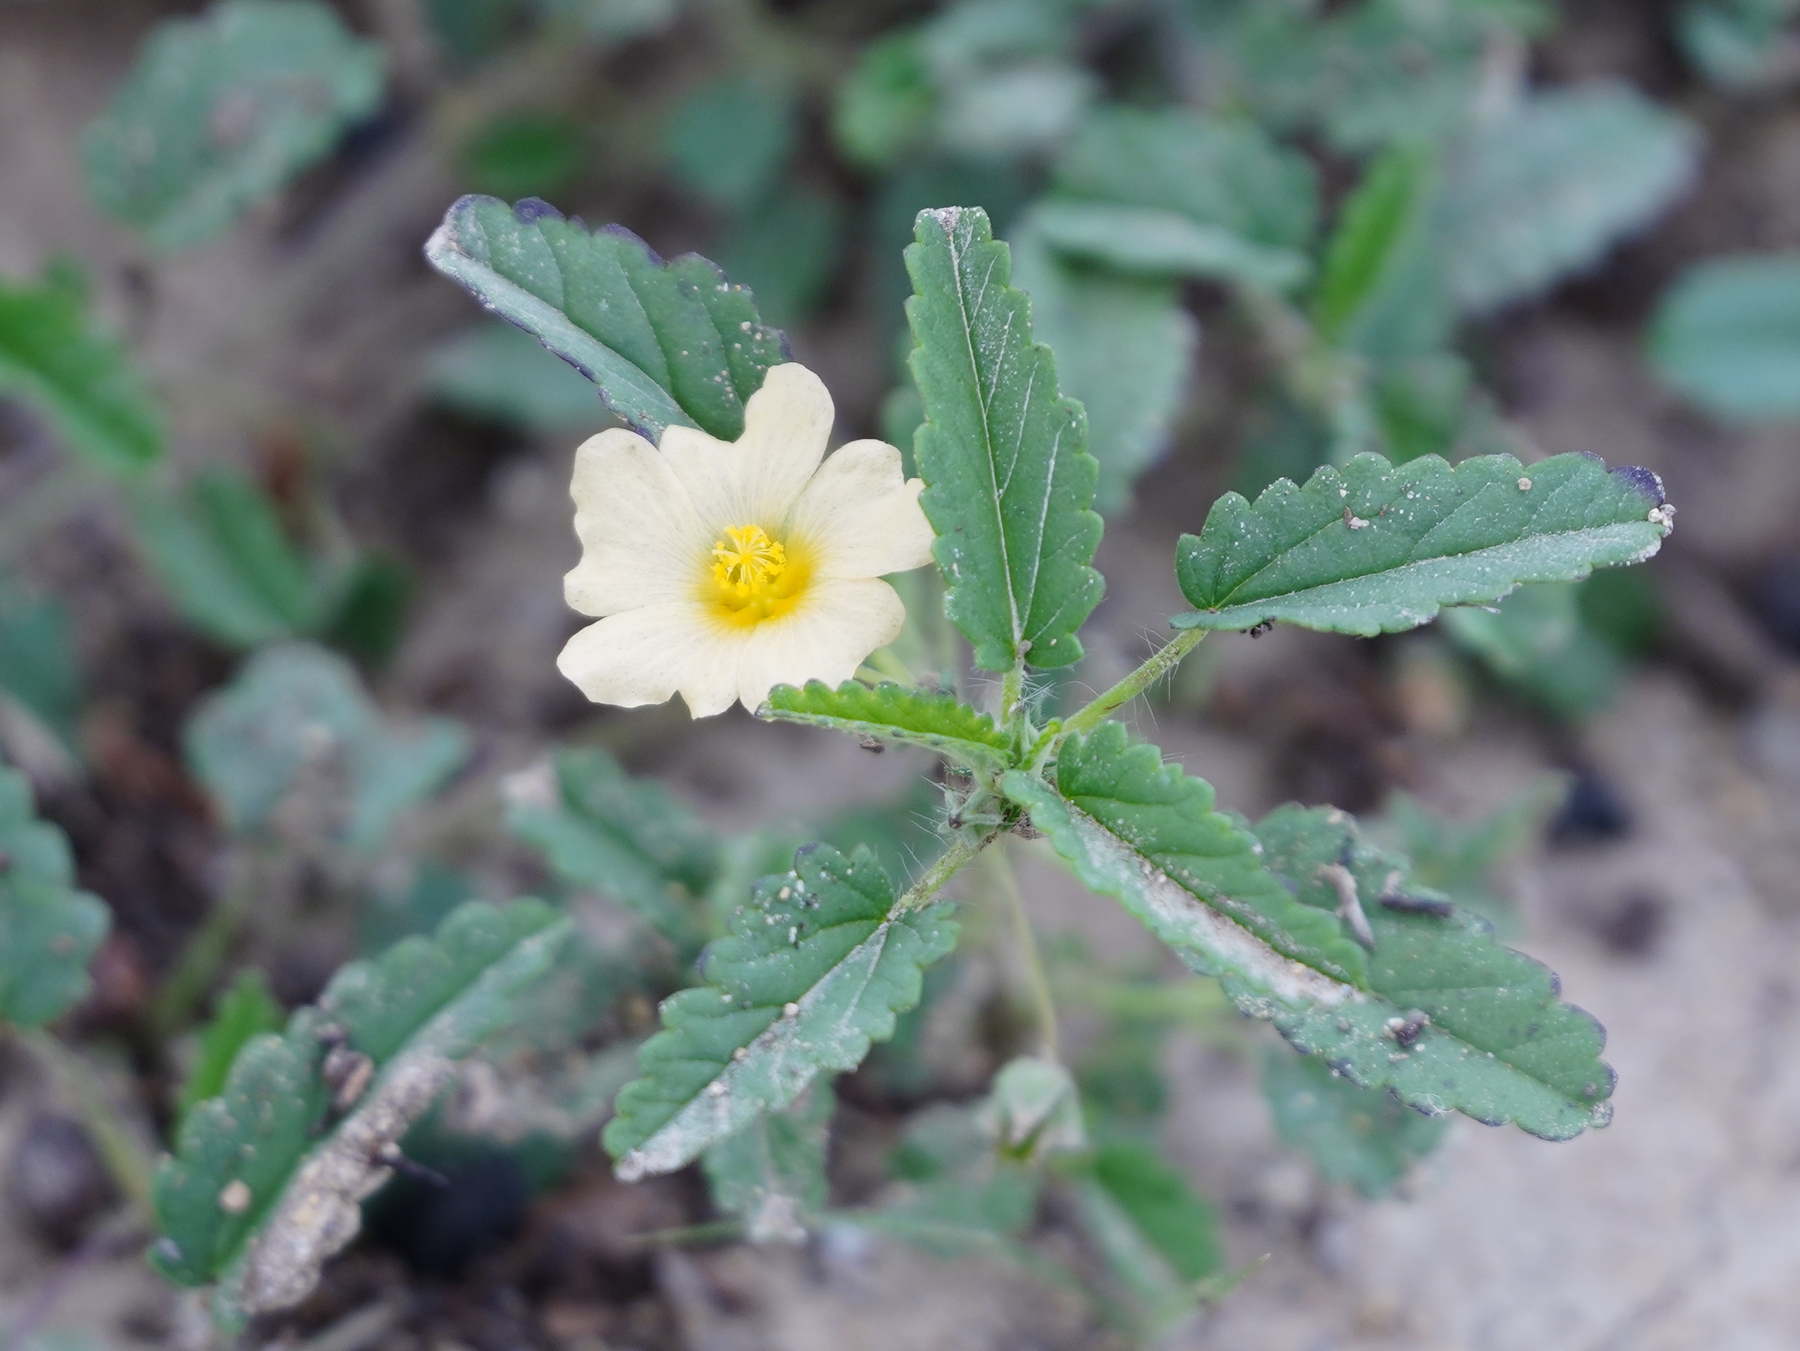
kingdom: Plantae
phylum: Tracheophyta
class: Magnoliopsida
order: Malvales
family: Malvaceae
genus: Sida
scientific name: Sida abutilifolia
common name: Spreading fanpetals
